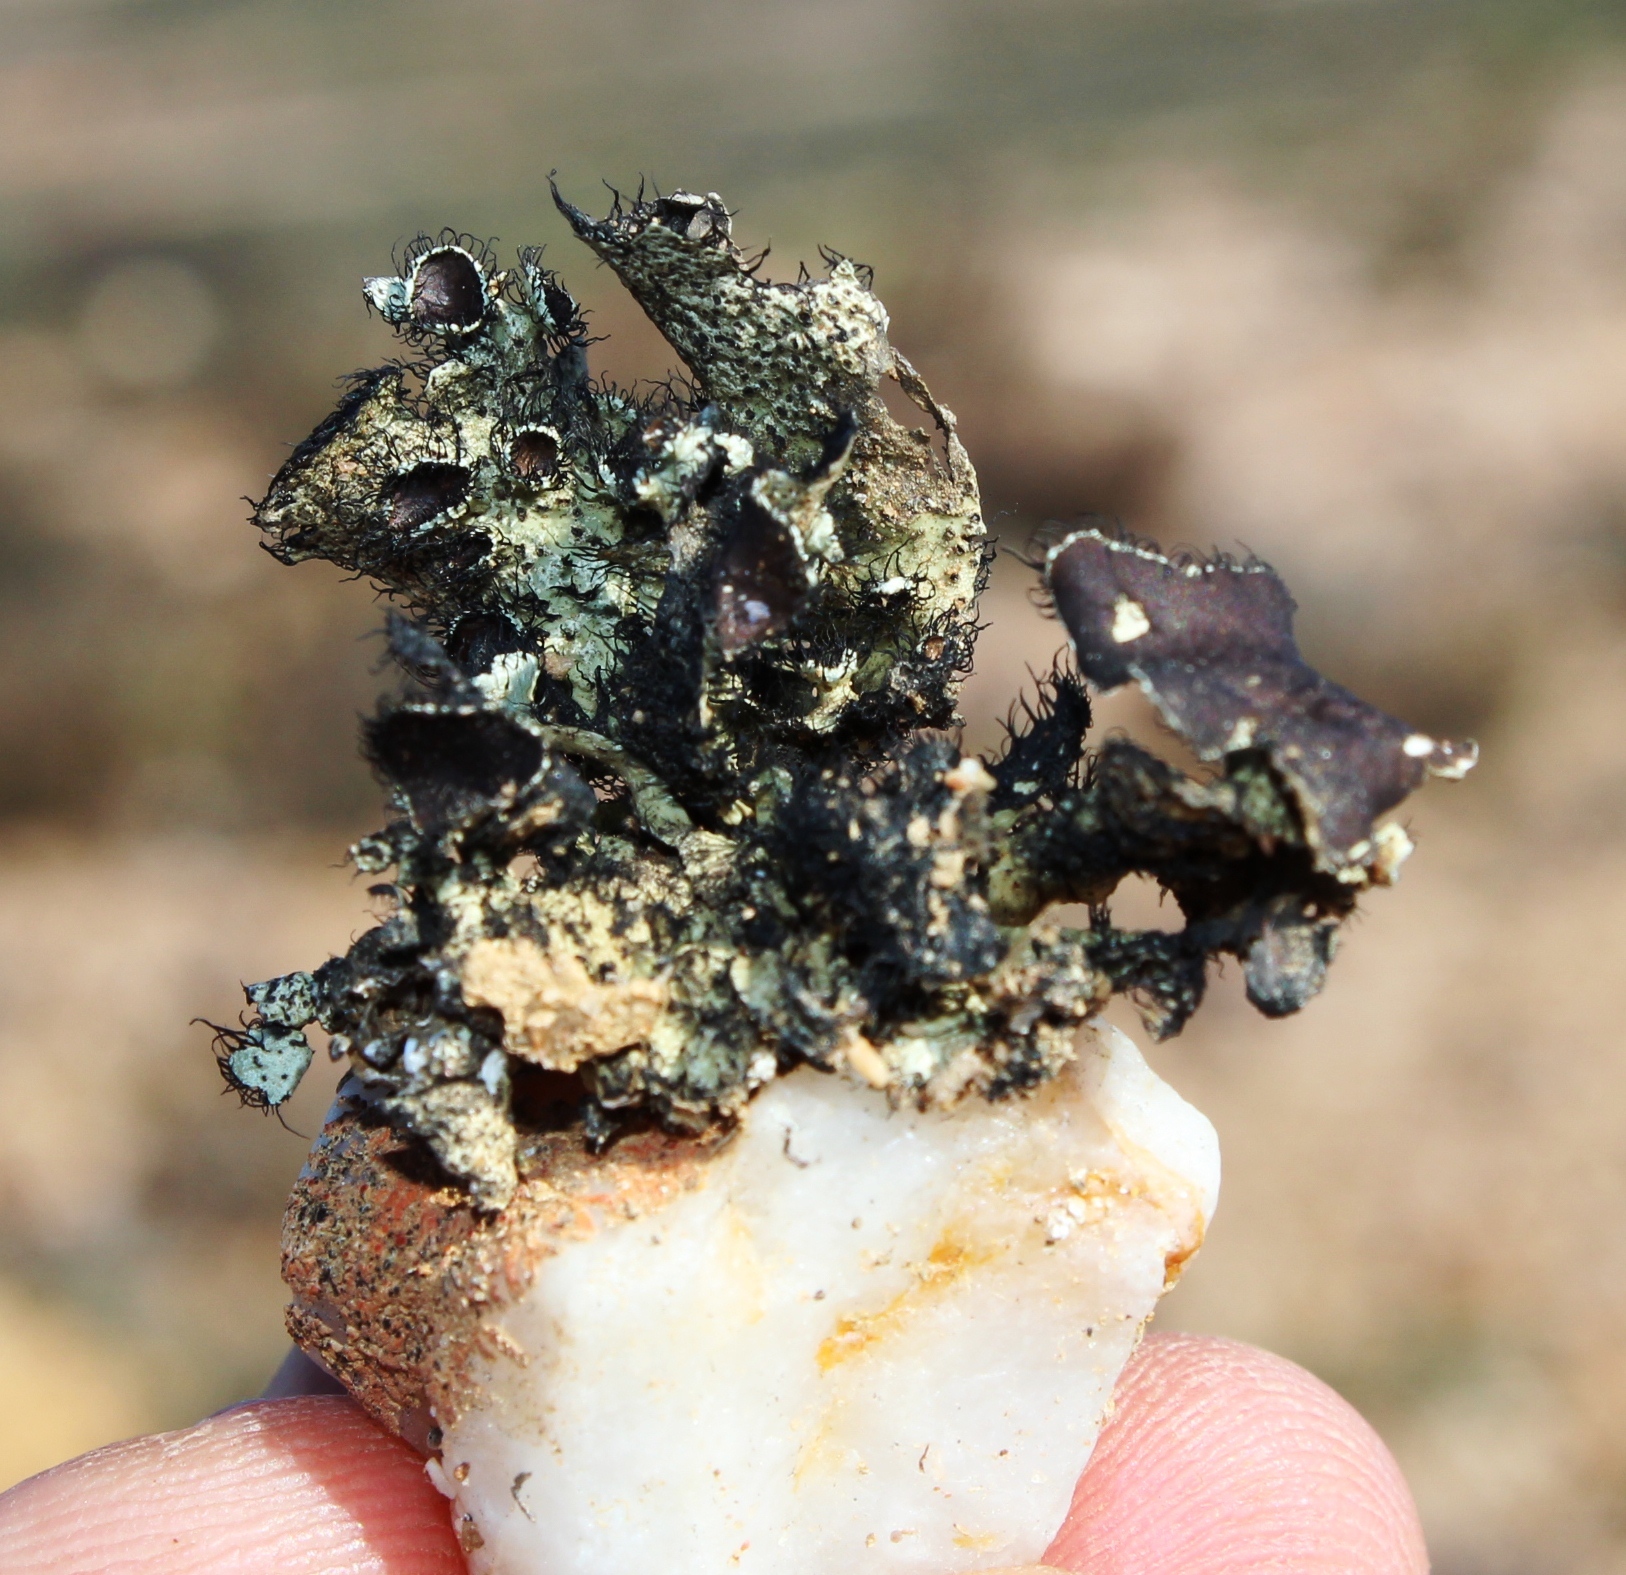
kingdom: Fungi
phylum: Ascomycota
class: Lecanoromycetes
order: Lecanorales
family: Parmeliaceae
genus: Xanthoparmelia
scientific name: Xanthoparmelia hottentotta
